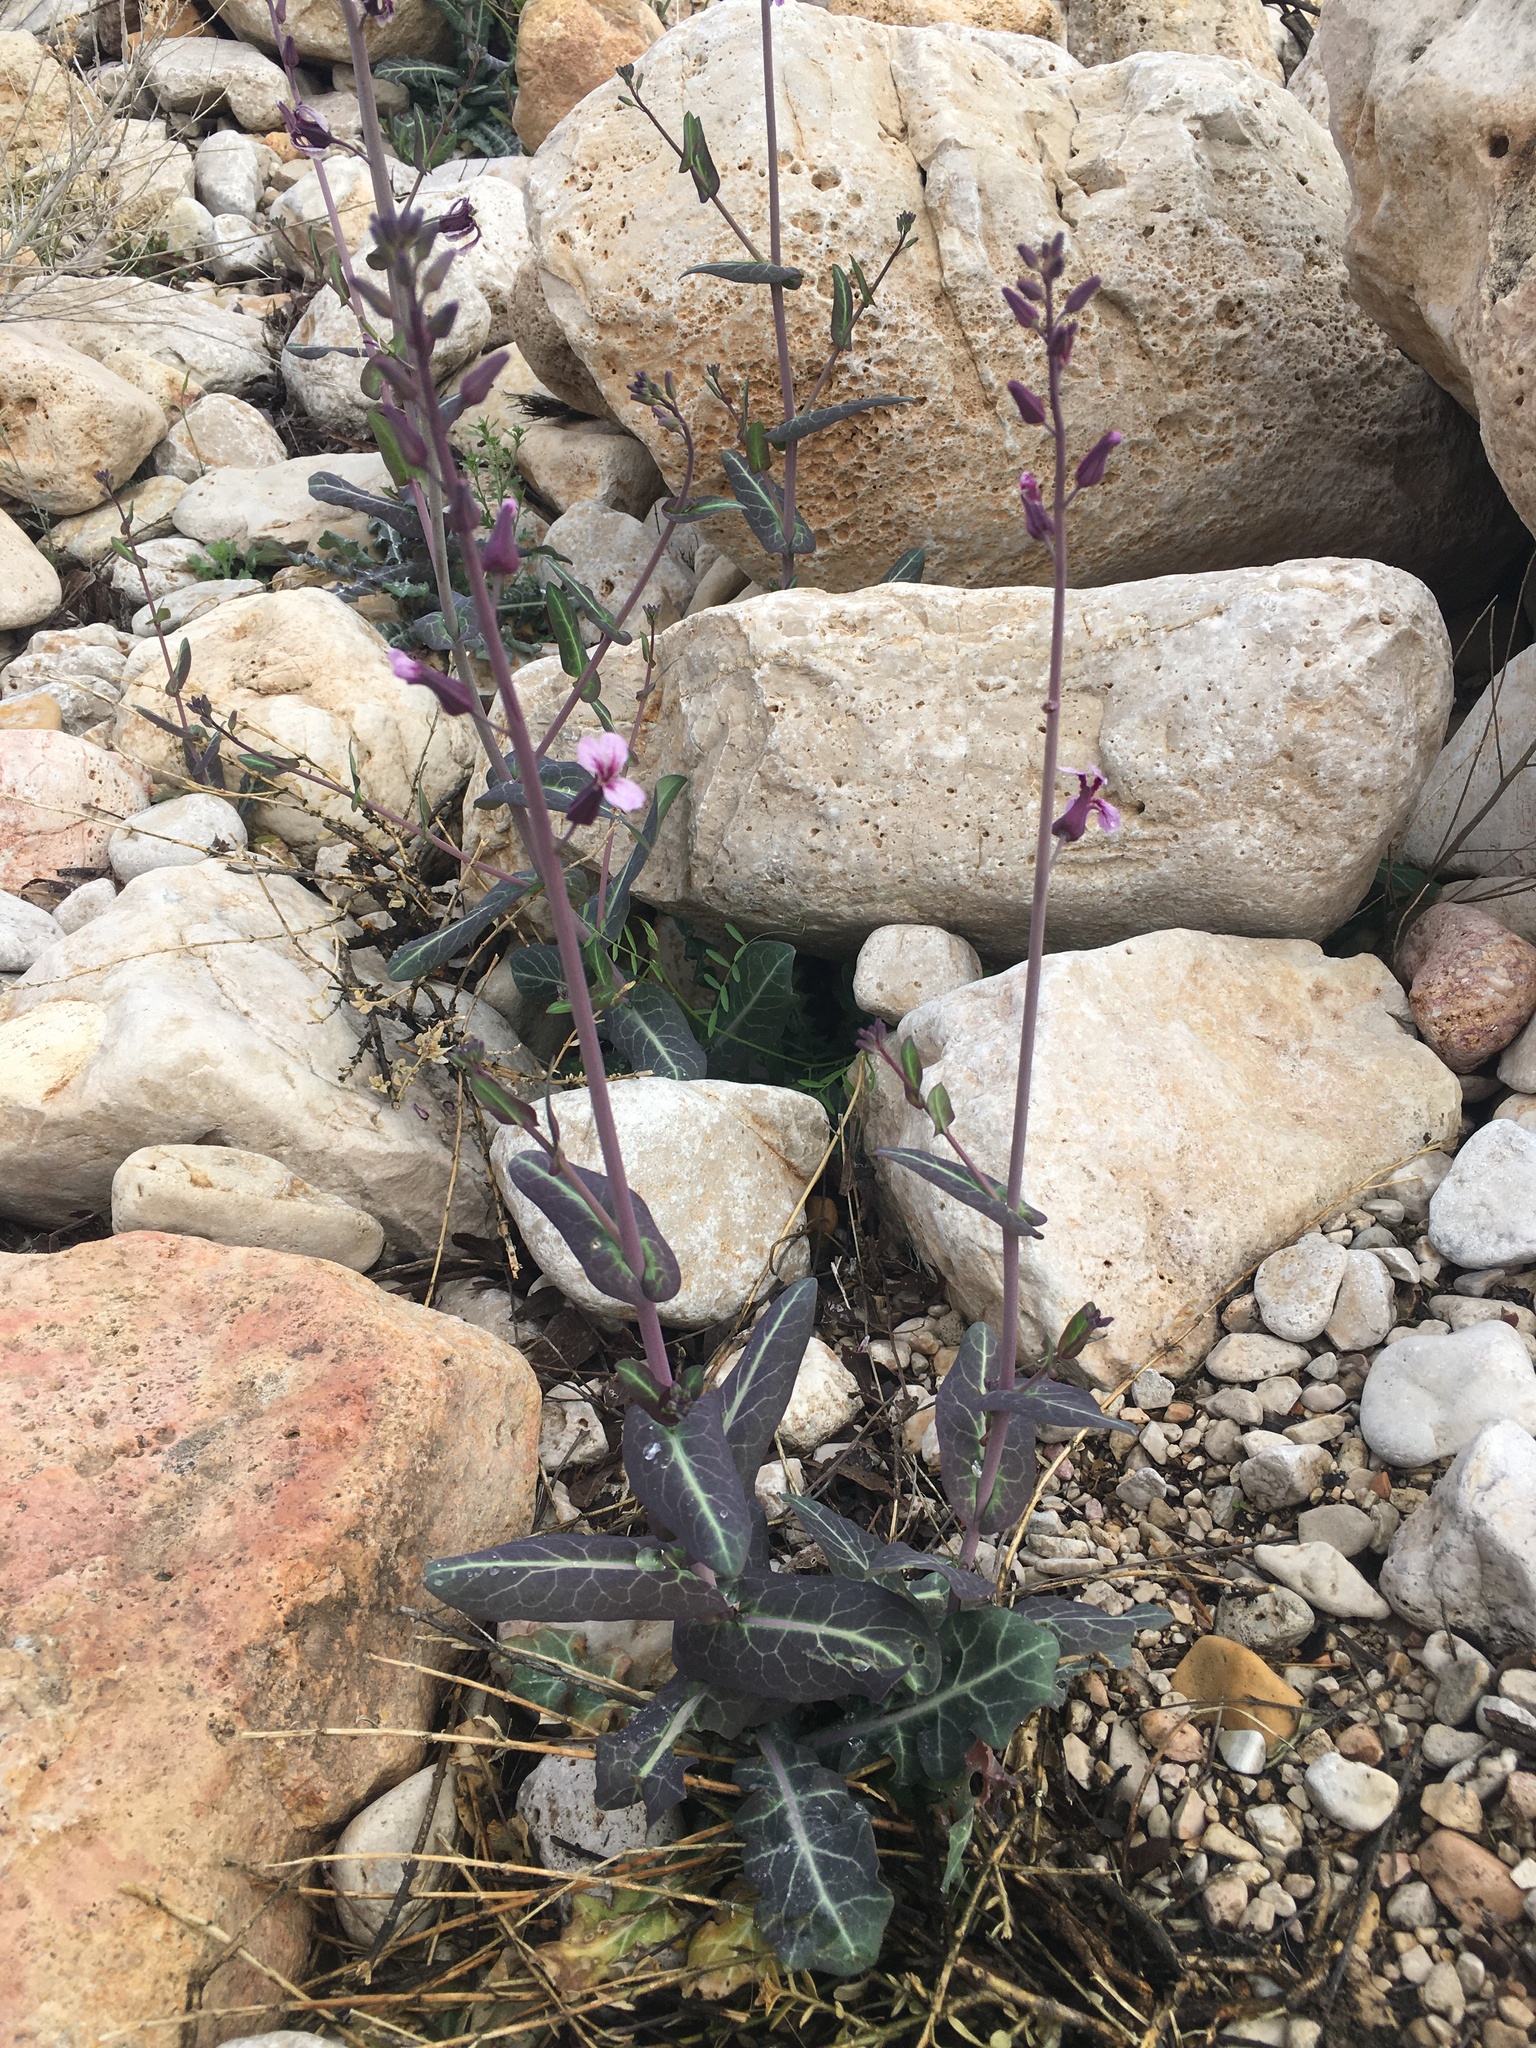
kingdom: Plantae
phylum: Tracheophyta
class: Magnoliopsida
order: Brassicales
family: Brassicaceae
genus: Streptanthus
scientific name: Streptanthus platycarpus
